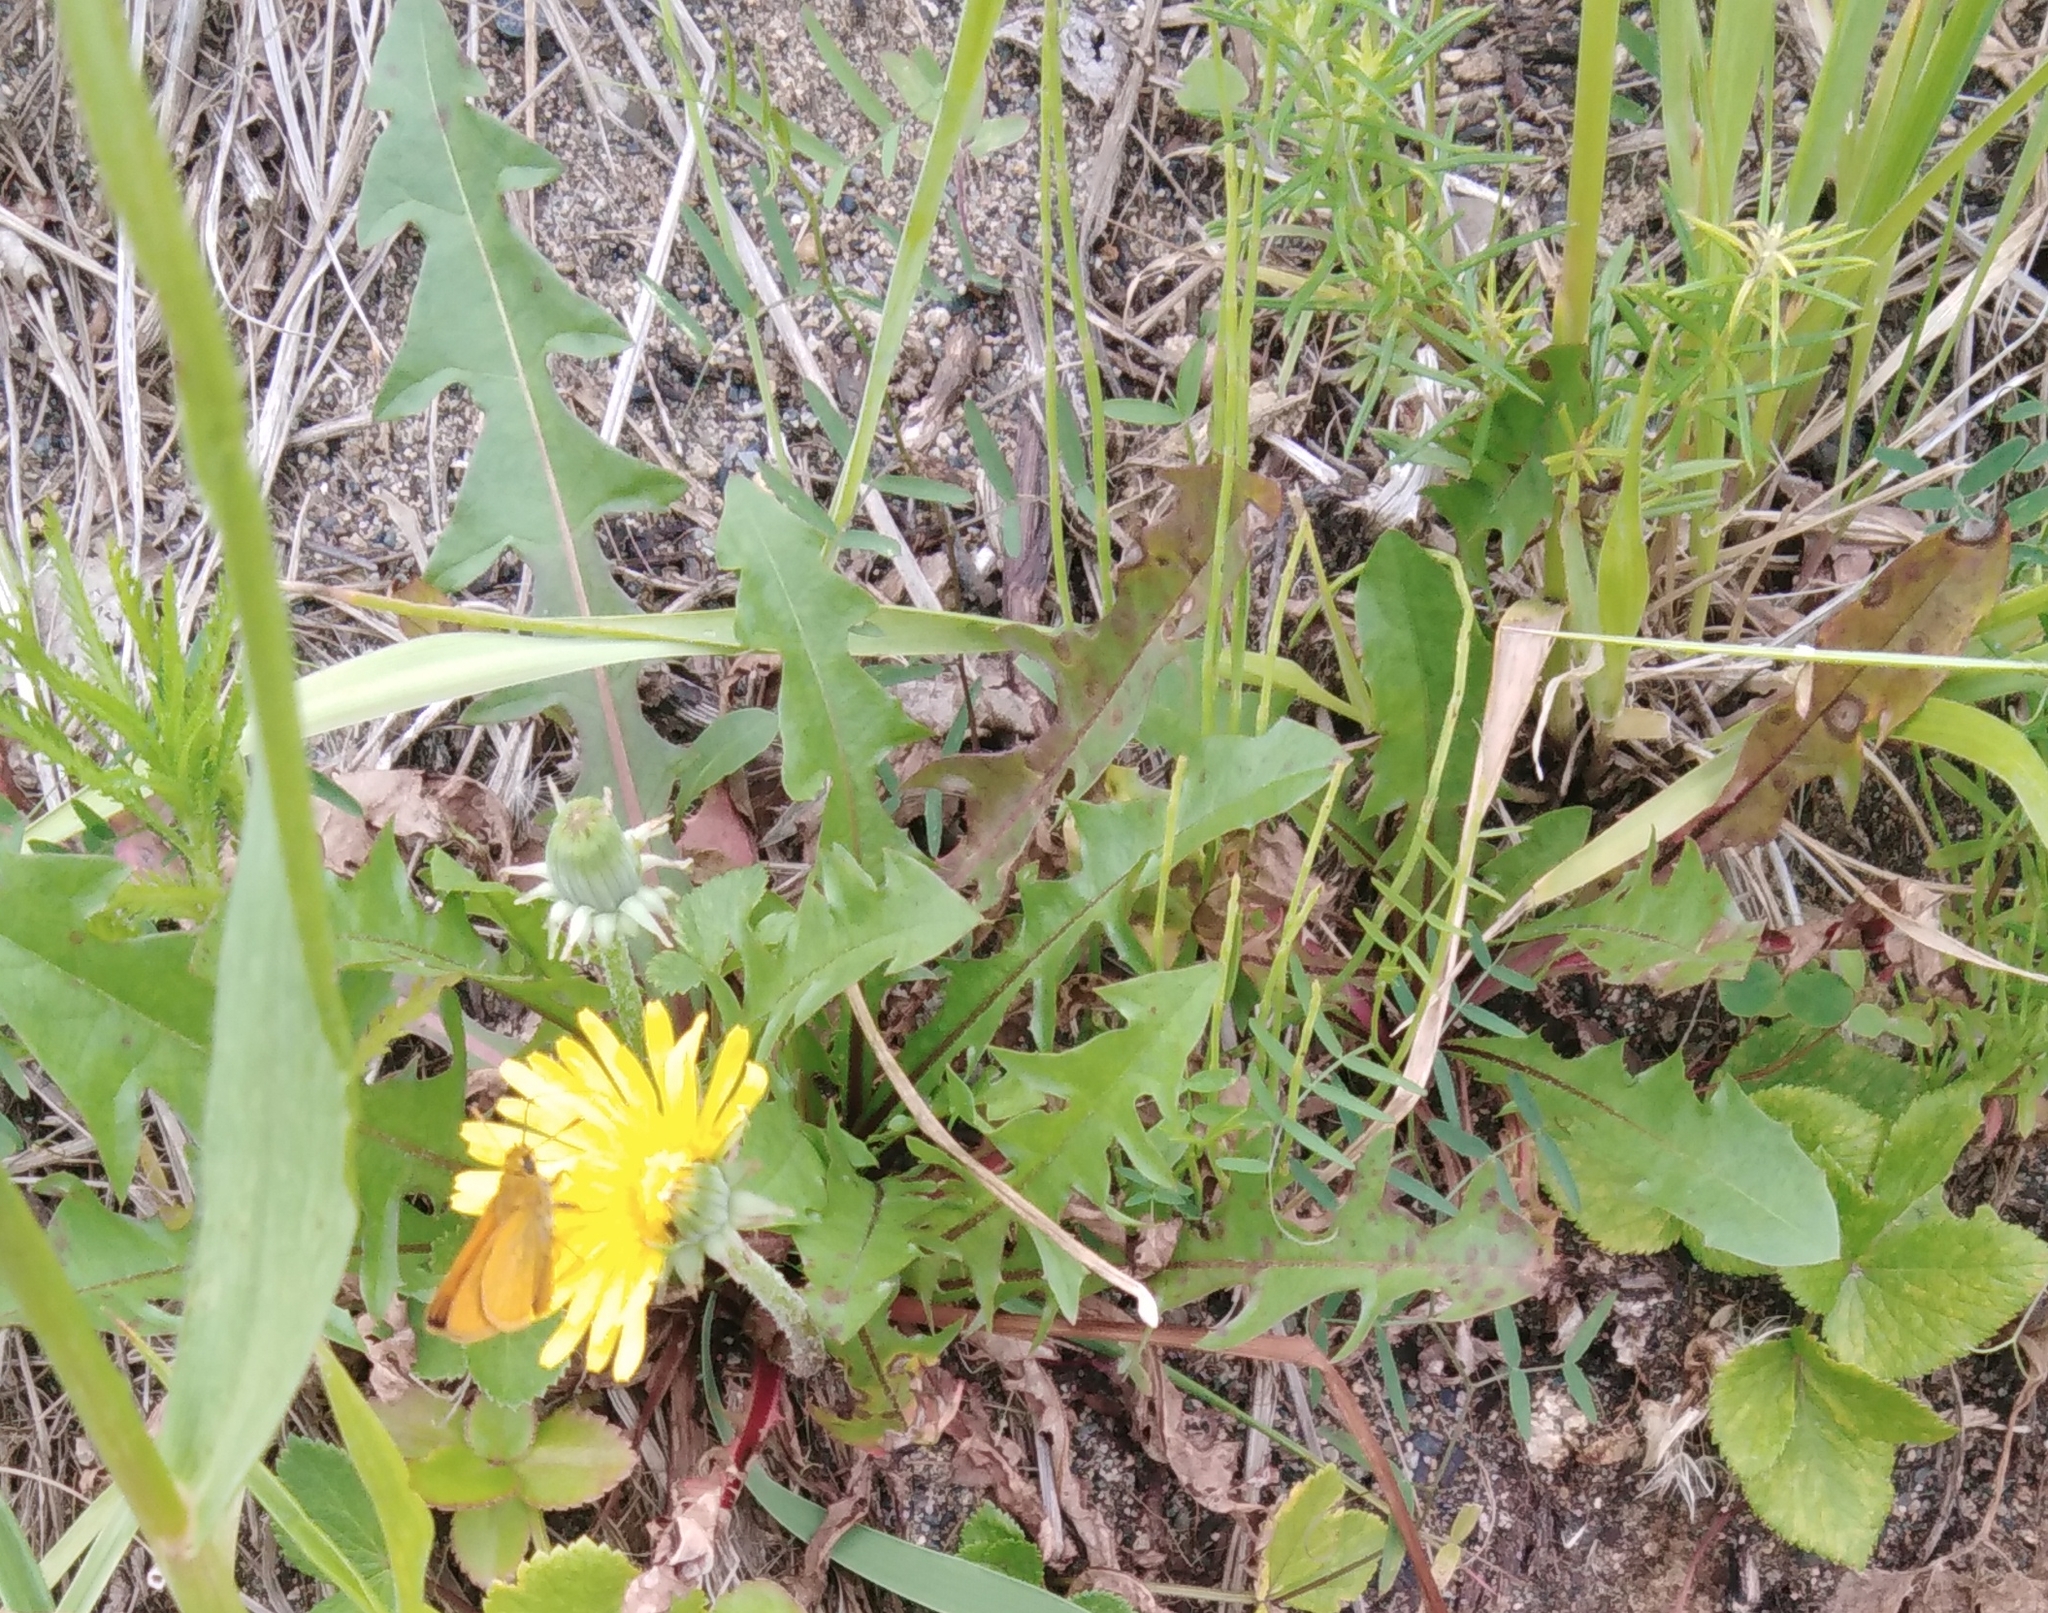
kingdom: Plantae
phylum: Tracheophyta
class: Magnoliopsida
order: Asterales
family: Asteraceae
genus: Taraxacum
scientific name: Taraxacum officinale
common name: Common dandelion
